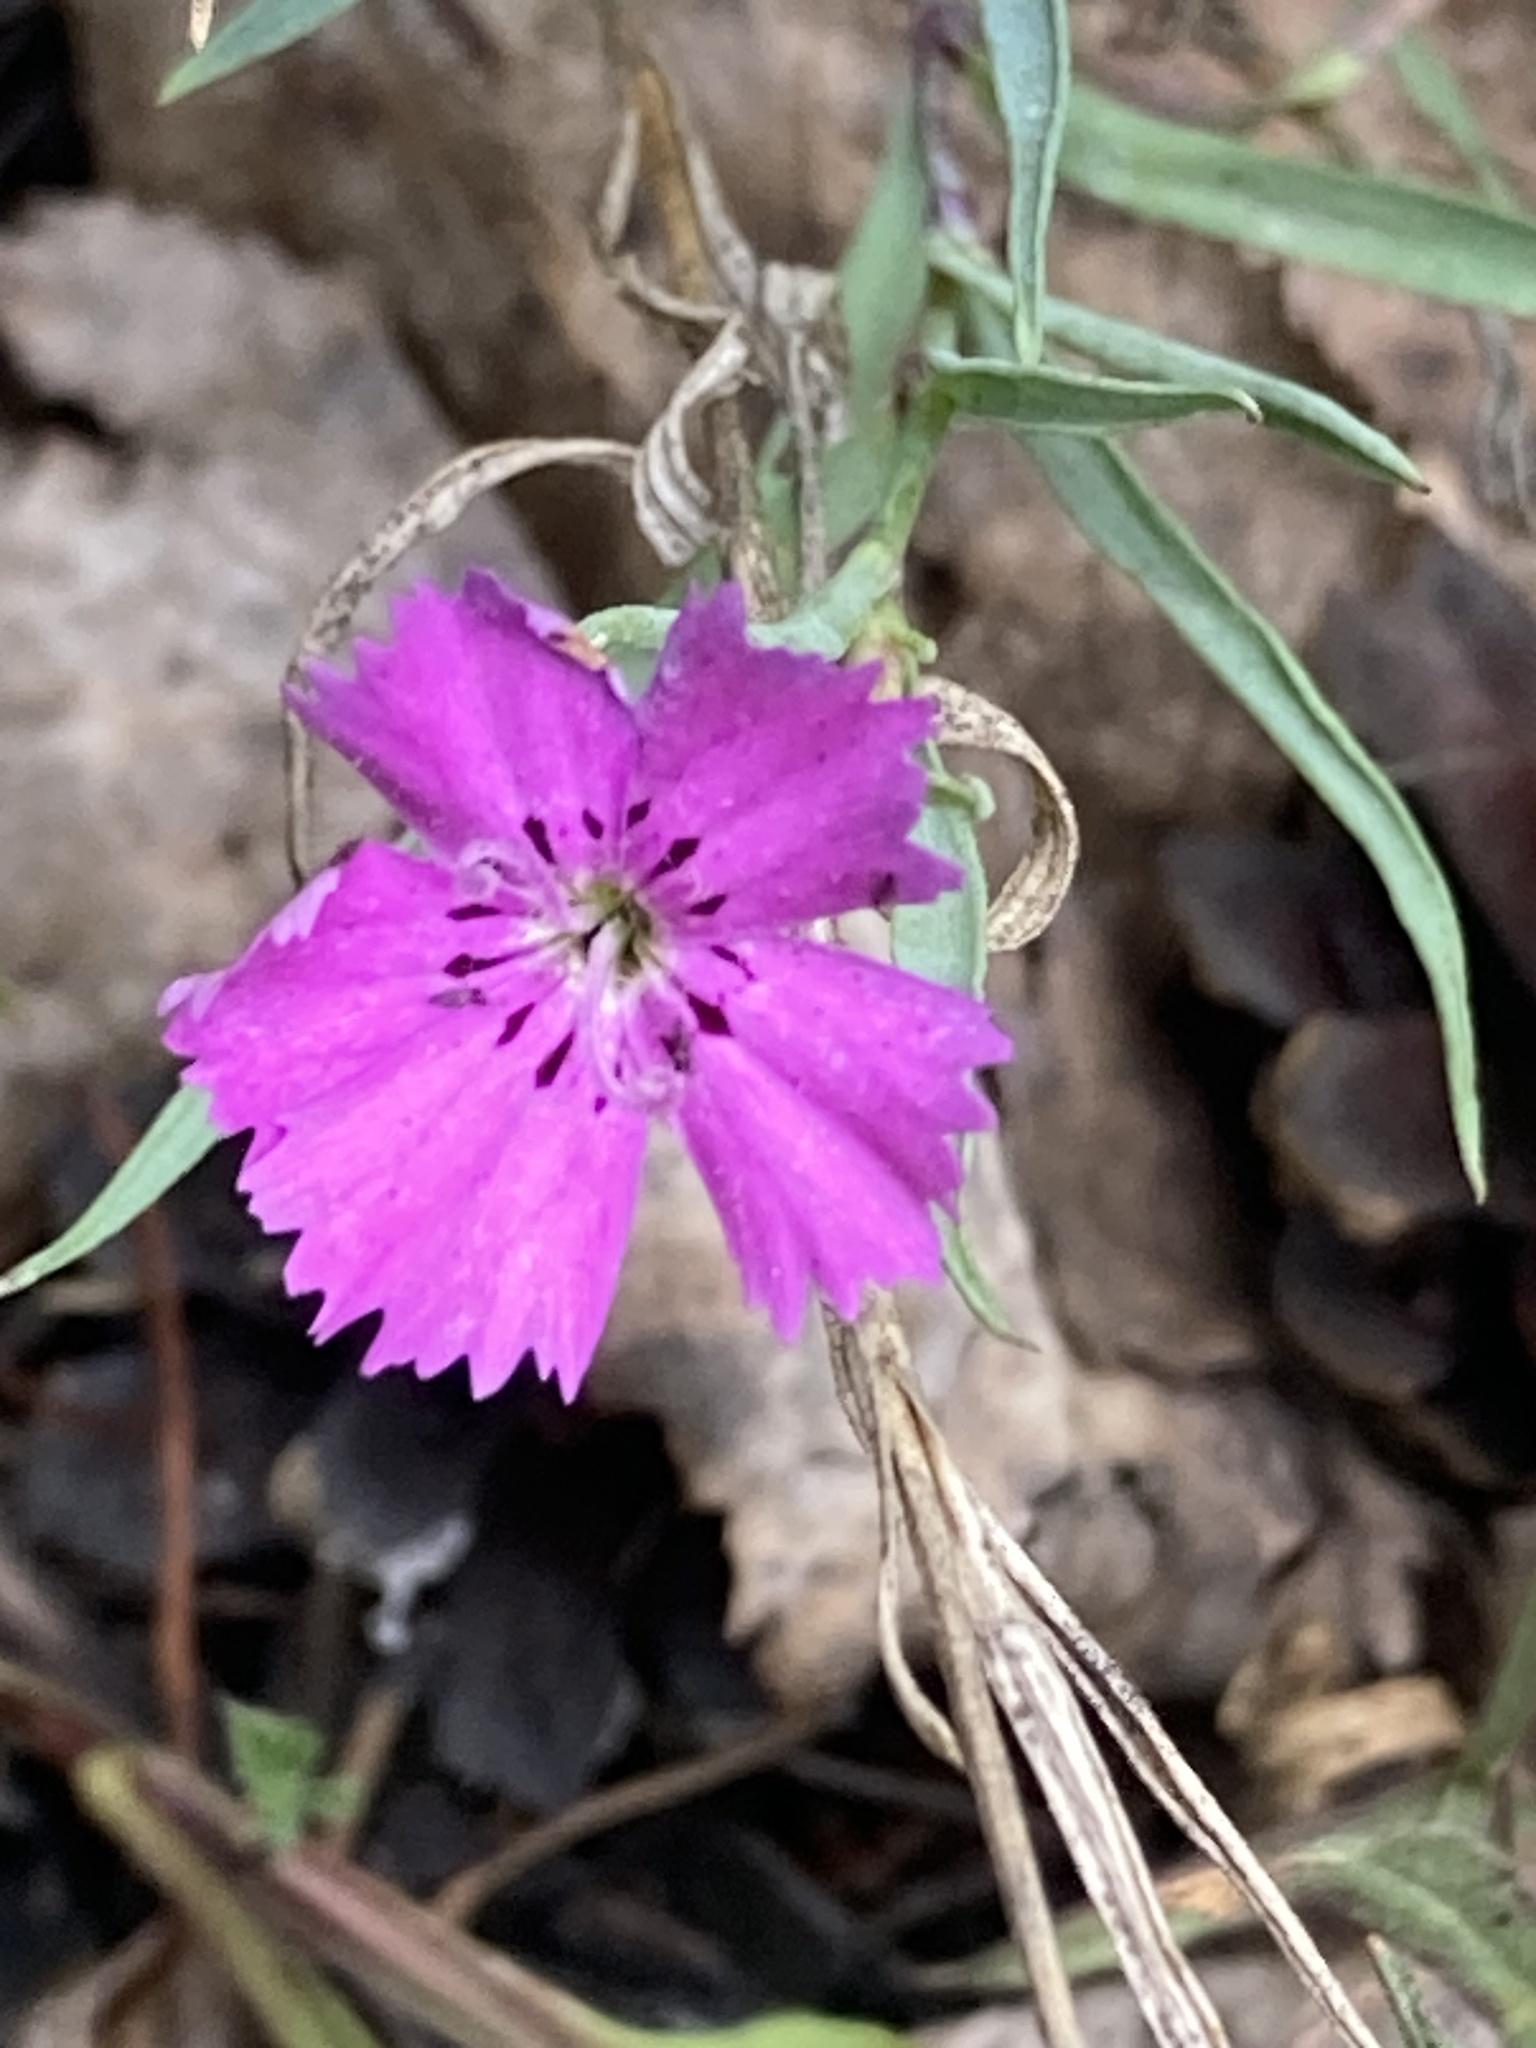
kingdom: Plantae
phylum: Tracheophyta
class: Magnoliopsida
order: Caryophyllales
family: Caryophyllaceae
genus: Dianthus
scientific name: Dianthus chinensis
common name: Rainbow pink
